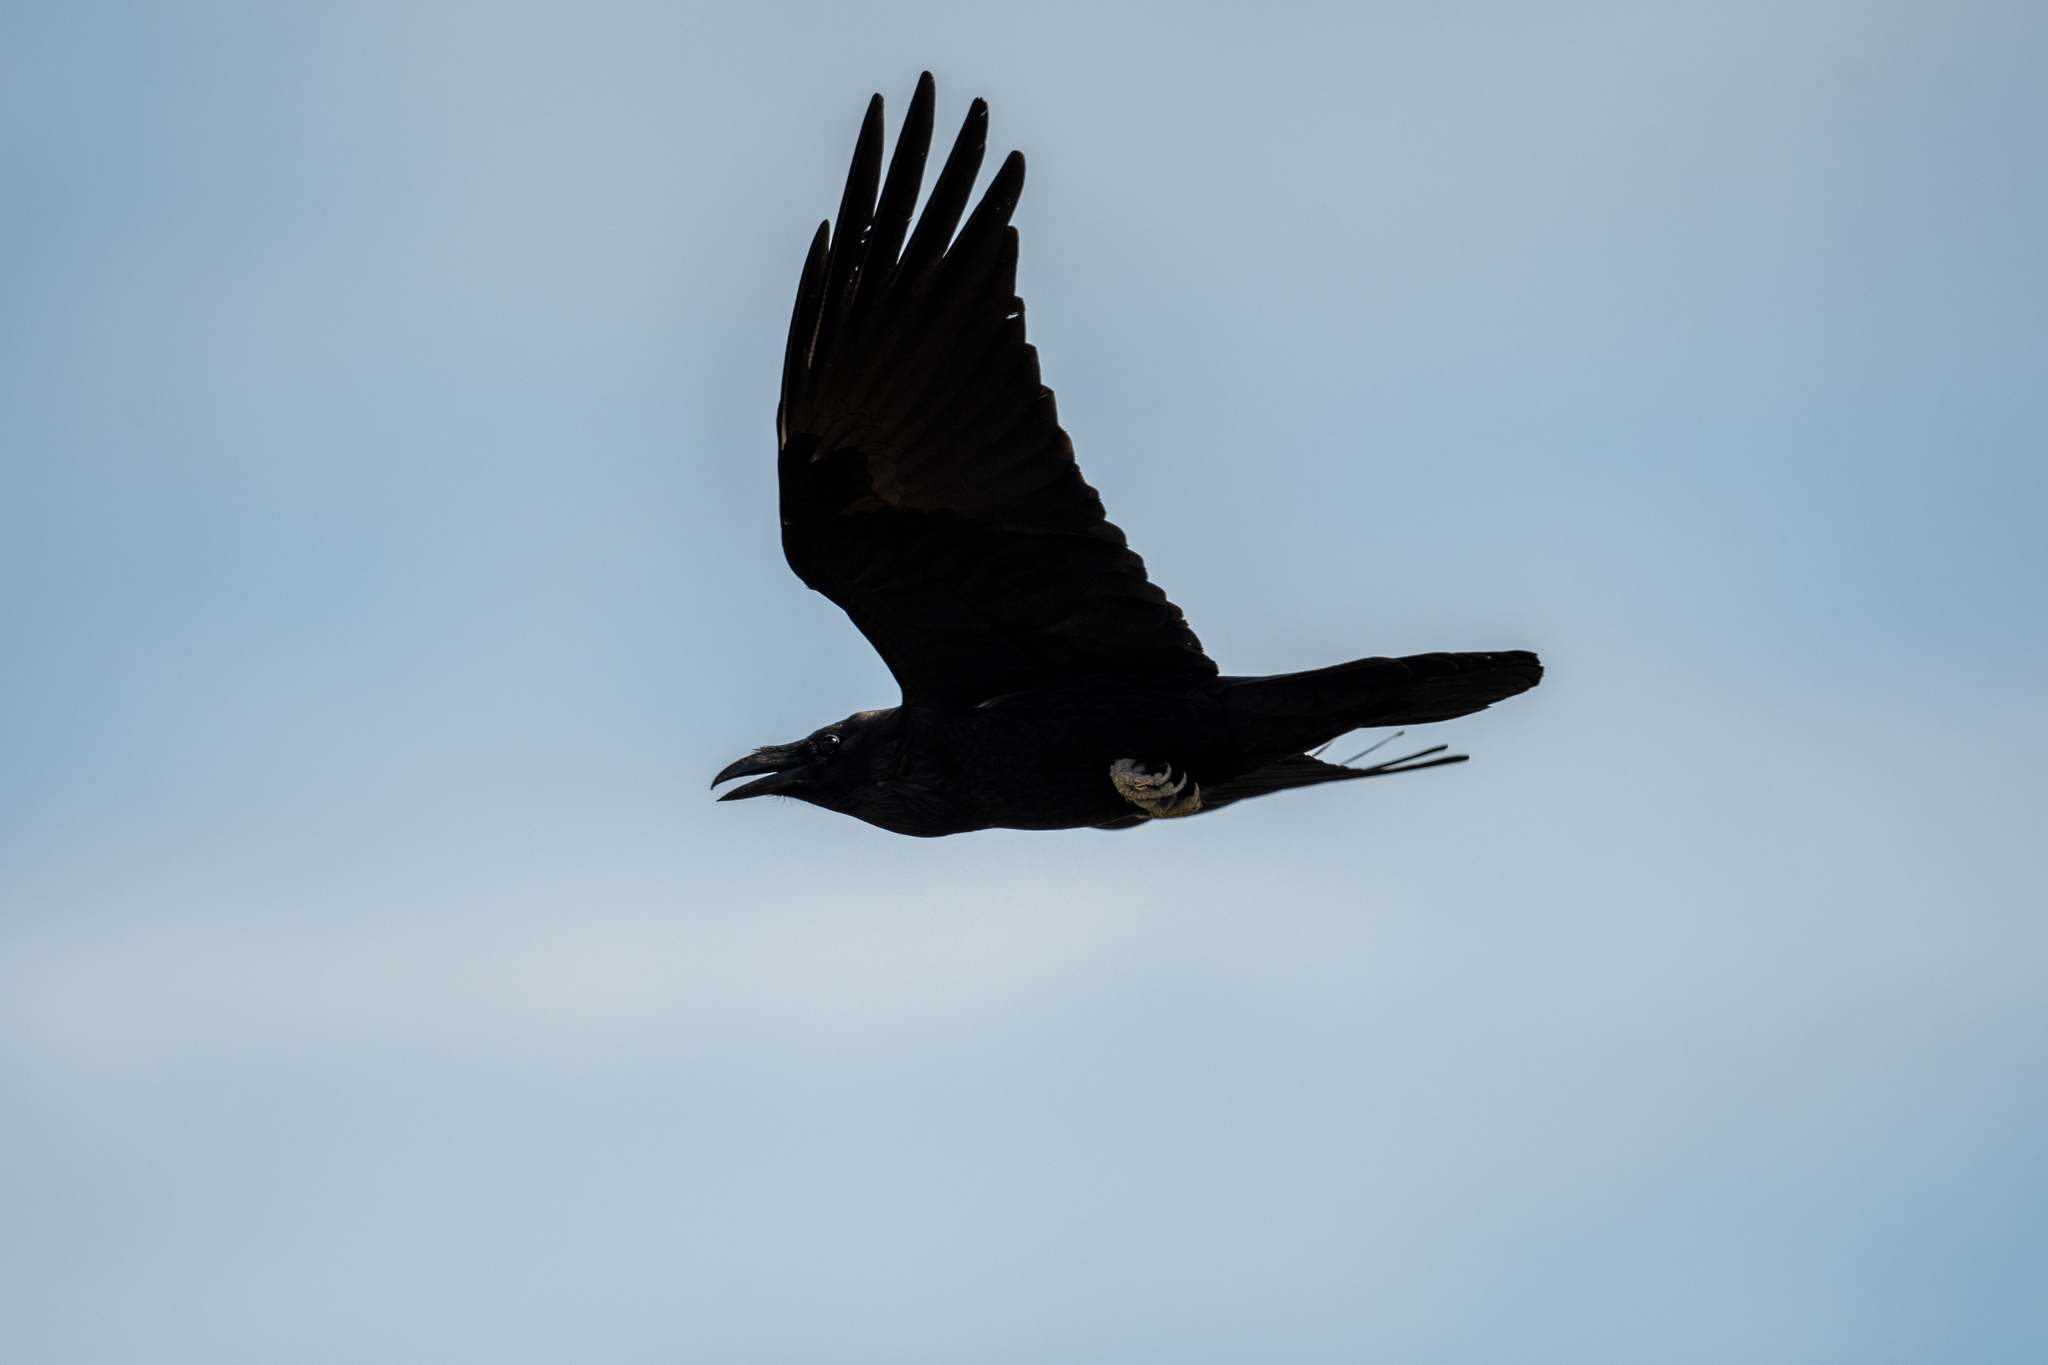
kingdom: Animalia
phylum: Chordata
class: Aves
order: Passeriformes
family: Corvidae
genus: Corvus
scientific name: Corvus corax
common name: Common raven
